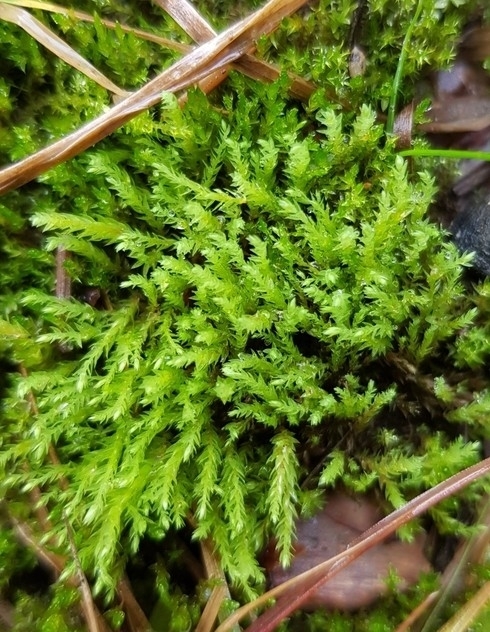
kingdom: Plantae
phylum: Bryophyta
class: Bryopsida
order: Bryales
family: Mniaceae
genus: Pohlia
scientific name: Pohlia wahlenbergii
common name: Wahlenberg's nodding moss
